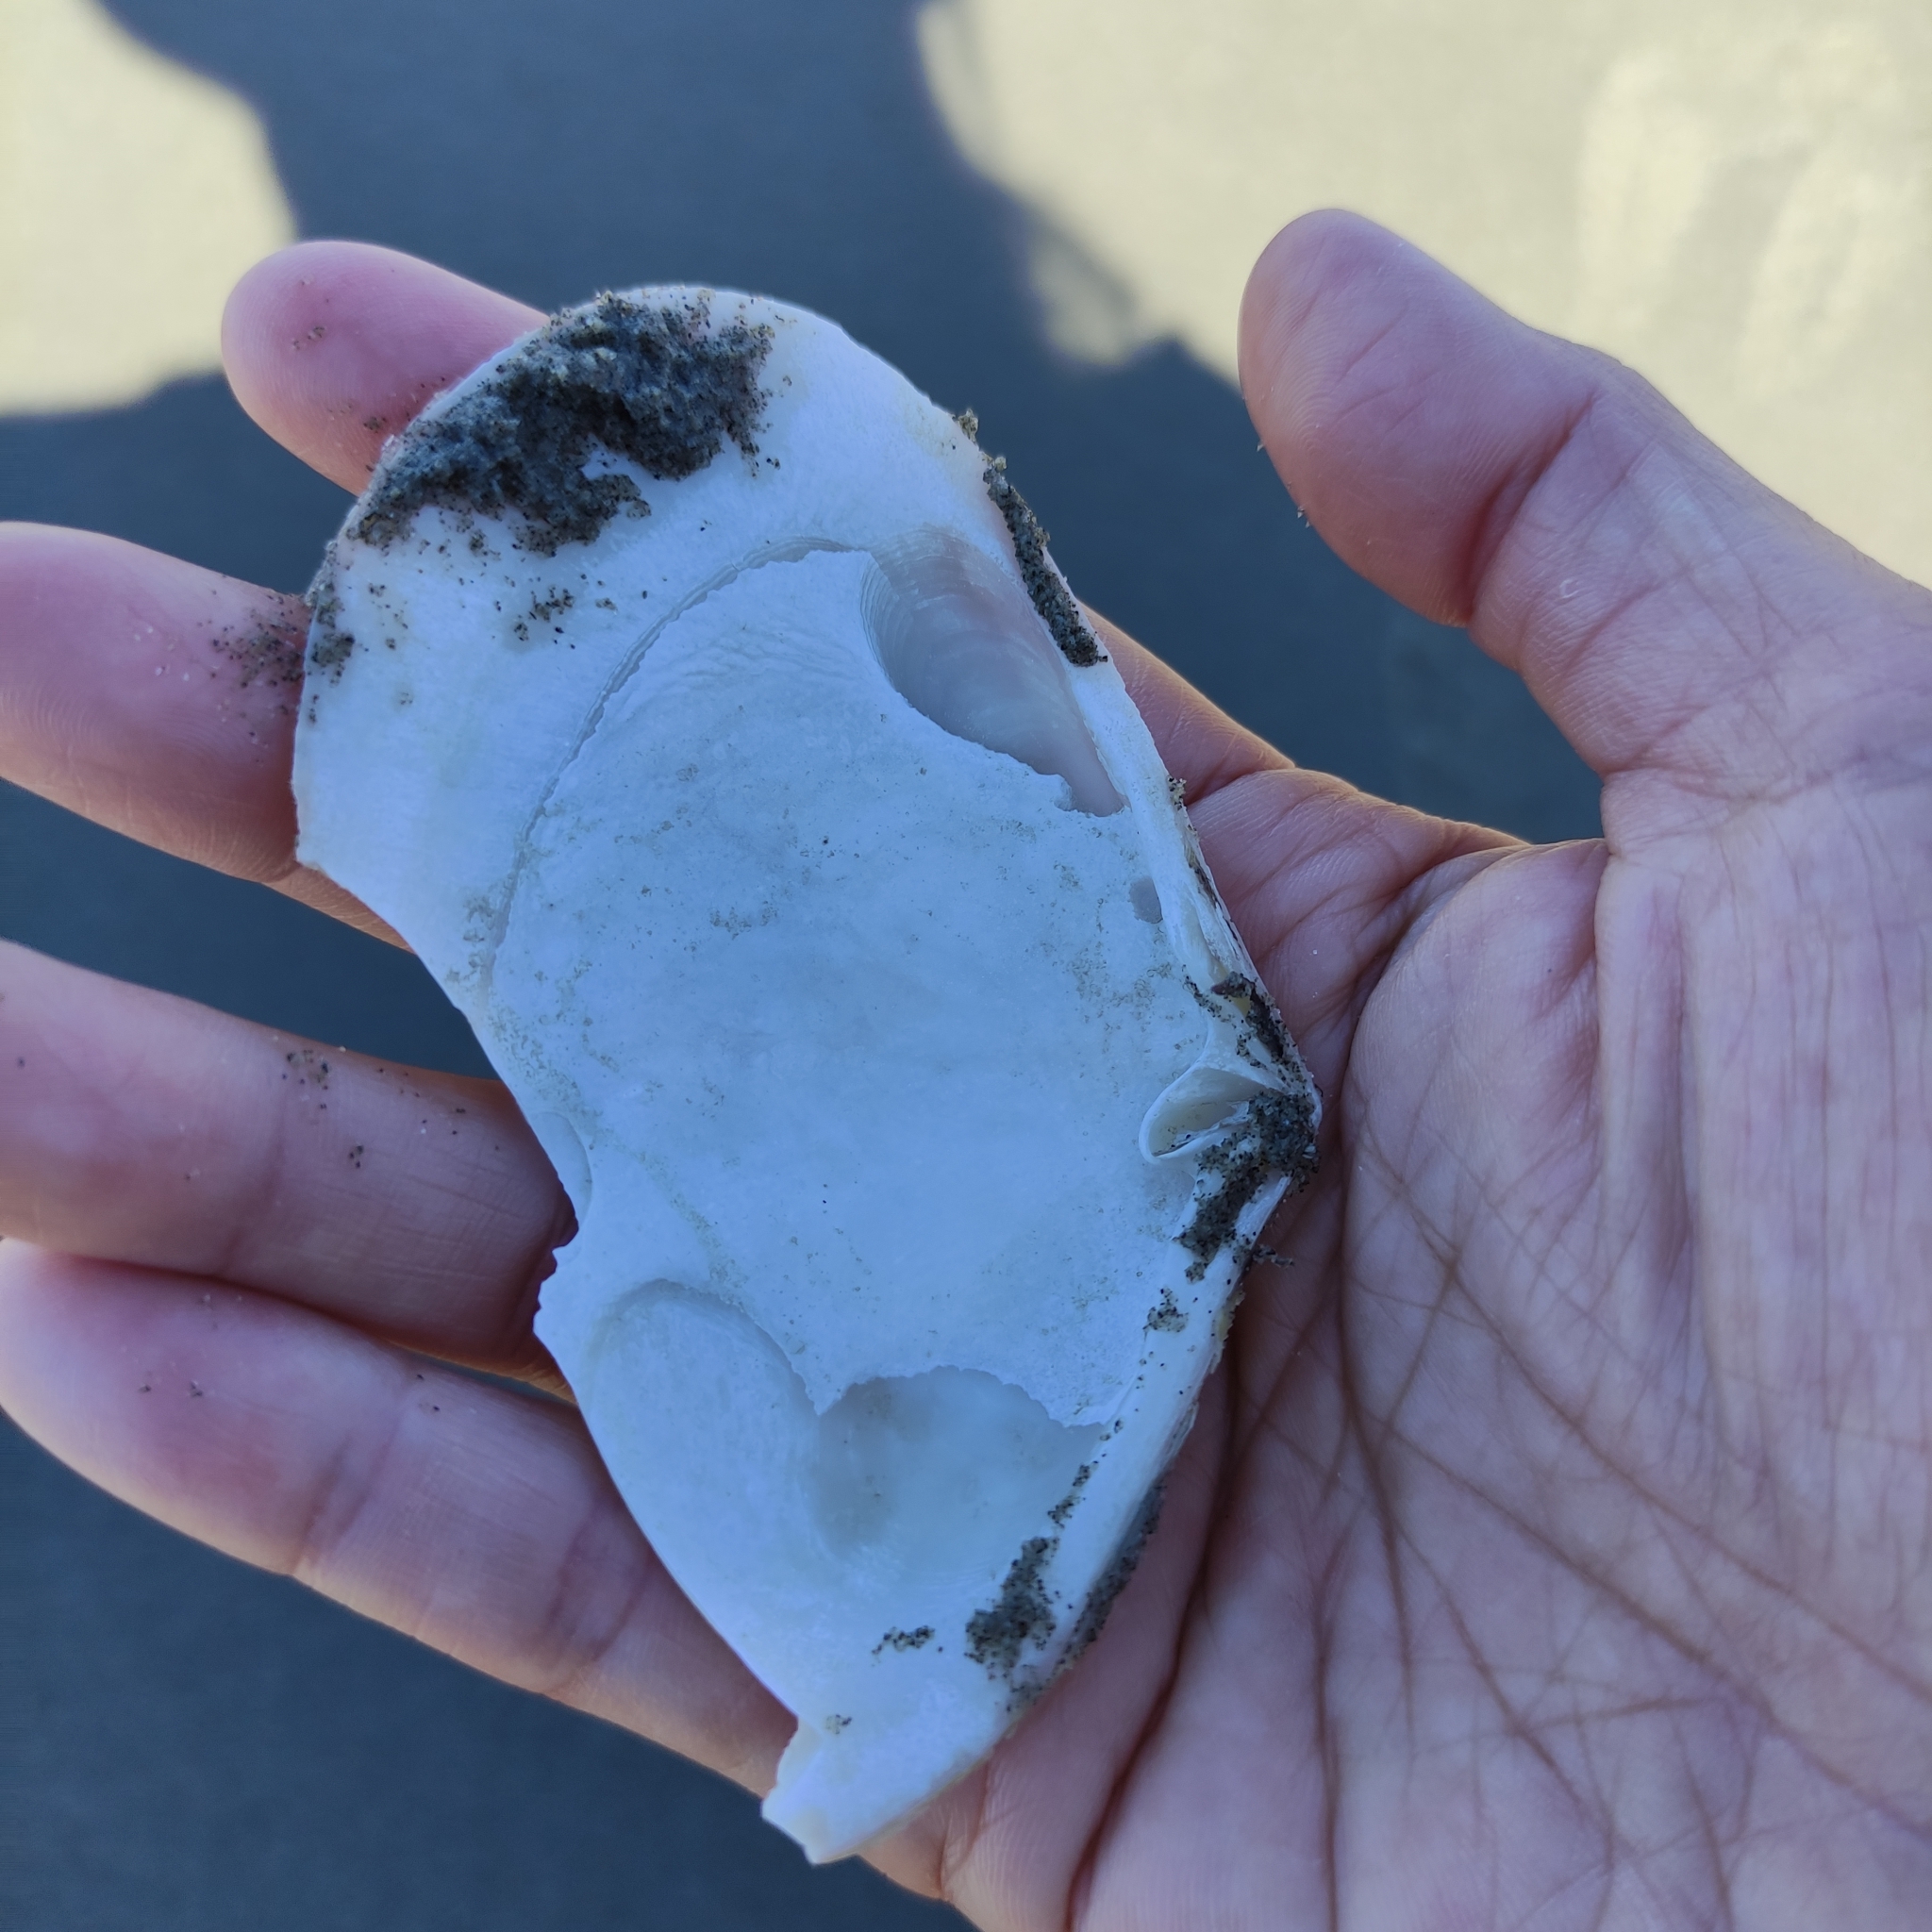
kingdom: Animalia
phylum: Mollusca
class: Bivalvia
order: Venerida
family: Mesodesmatidae
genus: Paphies
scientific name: Paphies donacina
